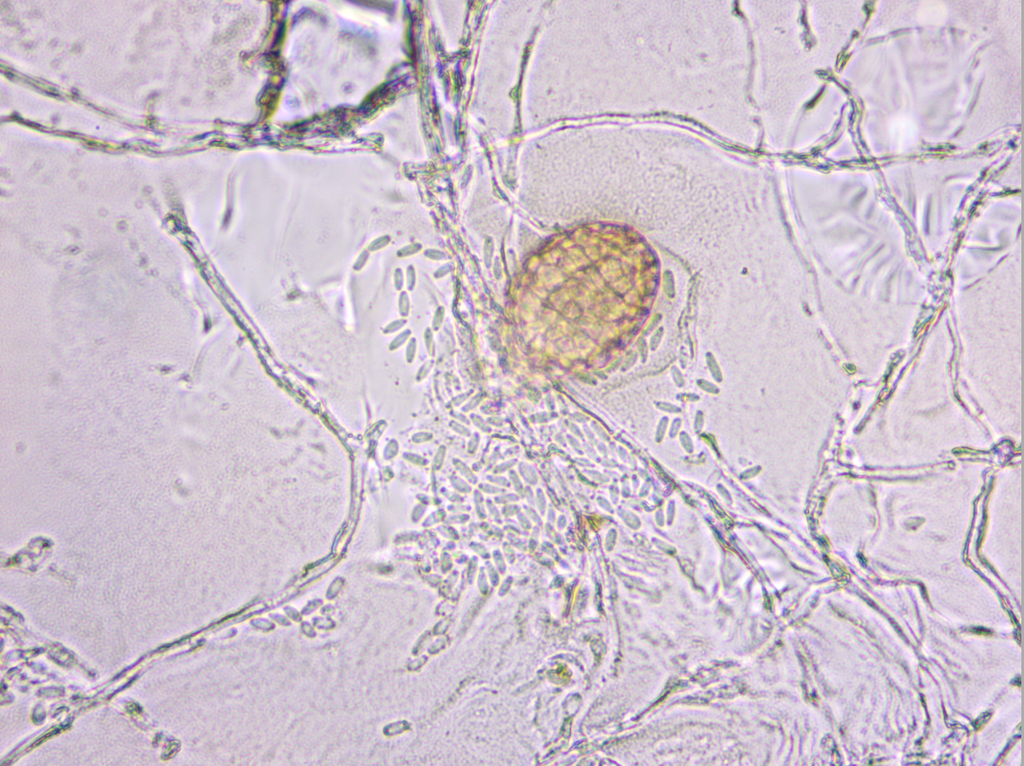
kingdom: Fungi
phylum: Ascomycota
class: Dothideomycetes
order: Pleosporales
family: Phaeosphaeriaceae
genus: Ampelomyces
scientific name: Ampelomyces quisqualis
